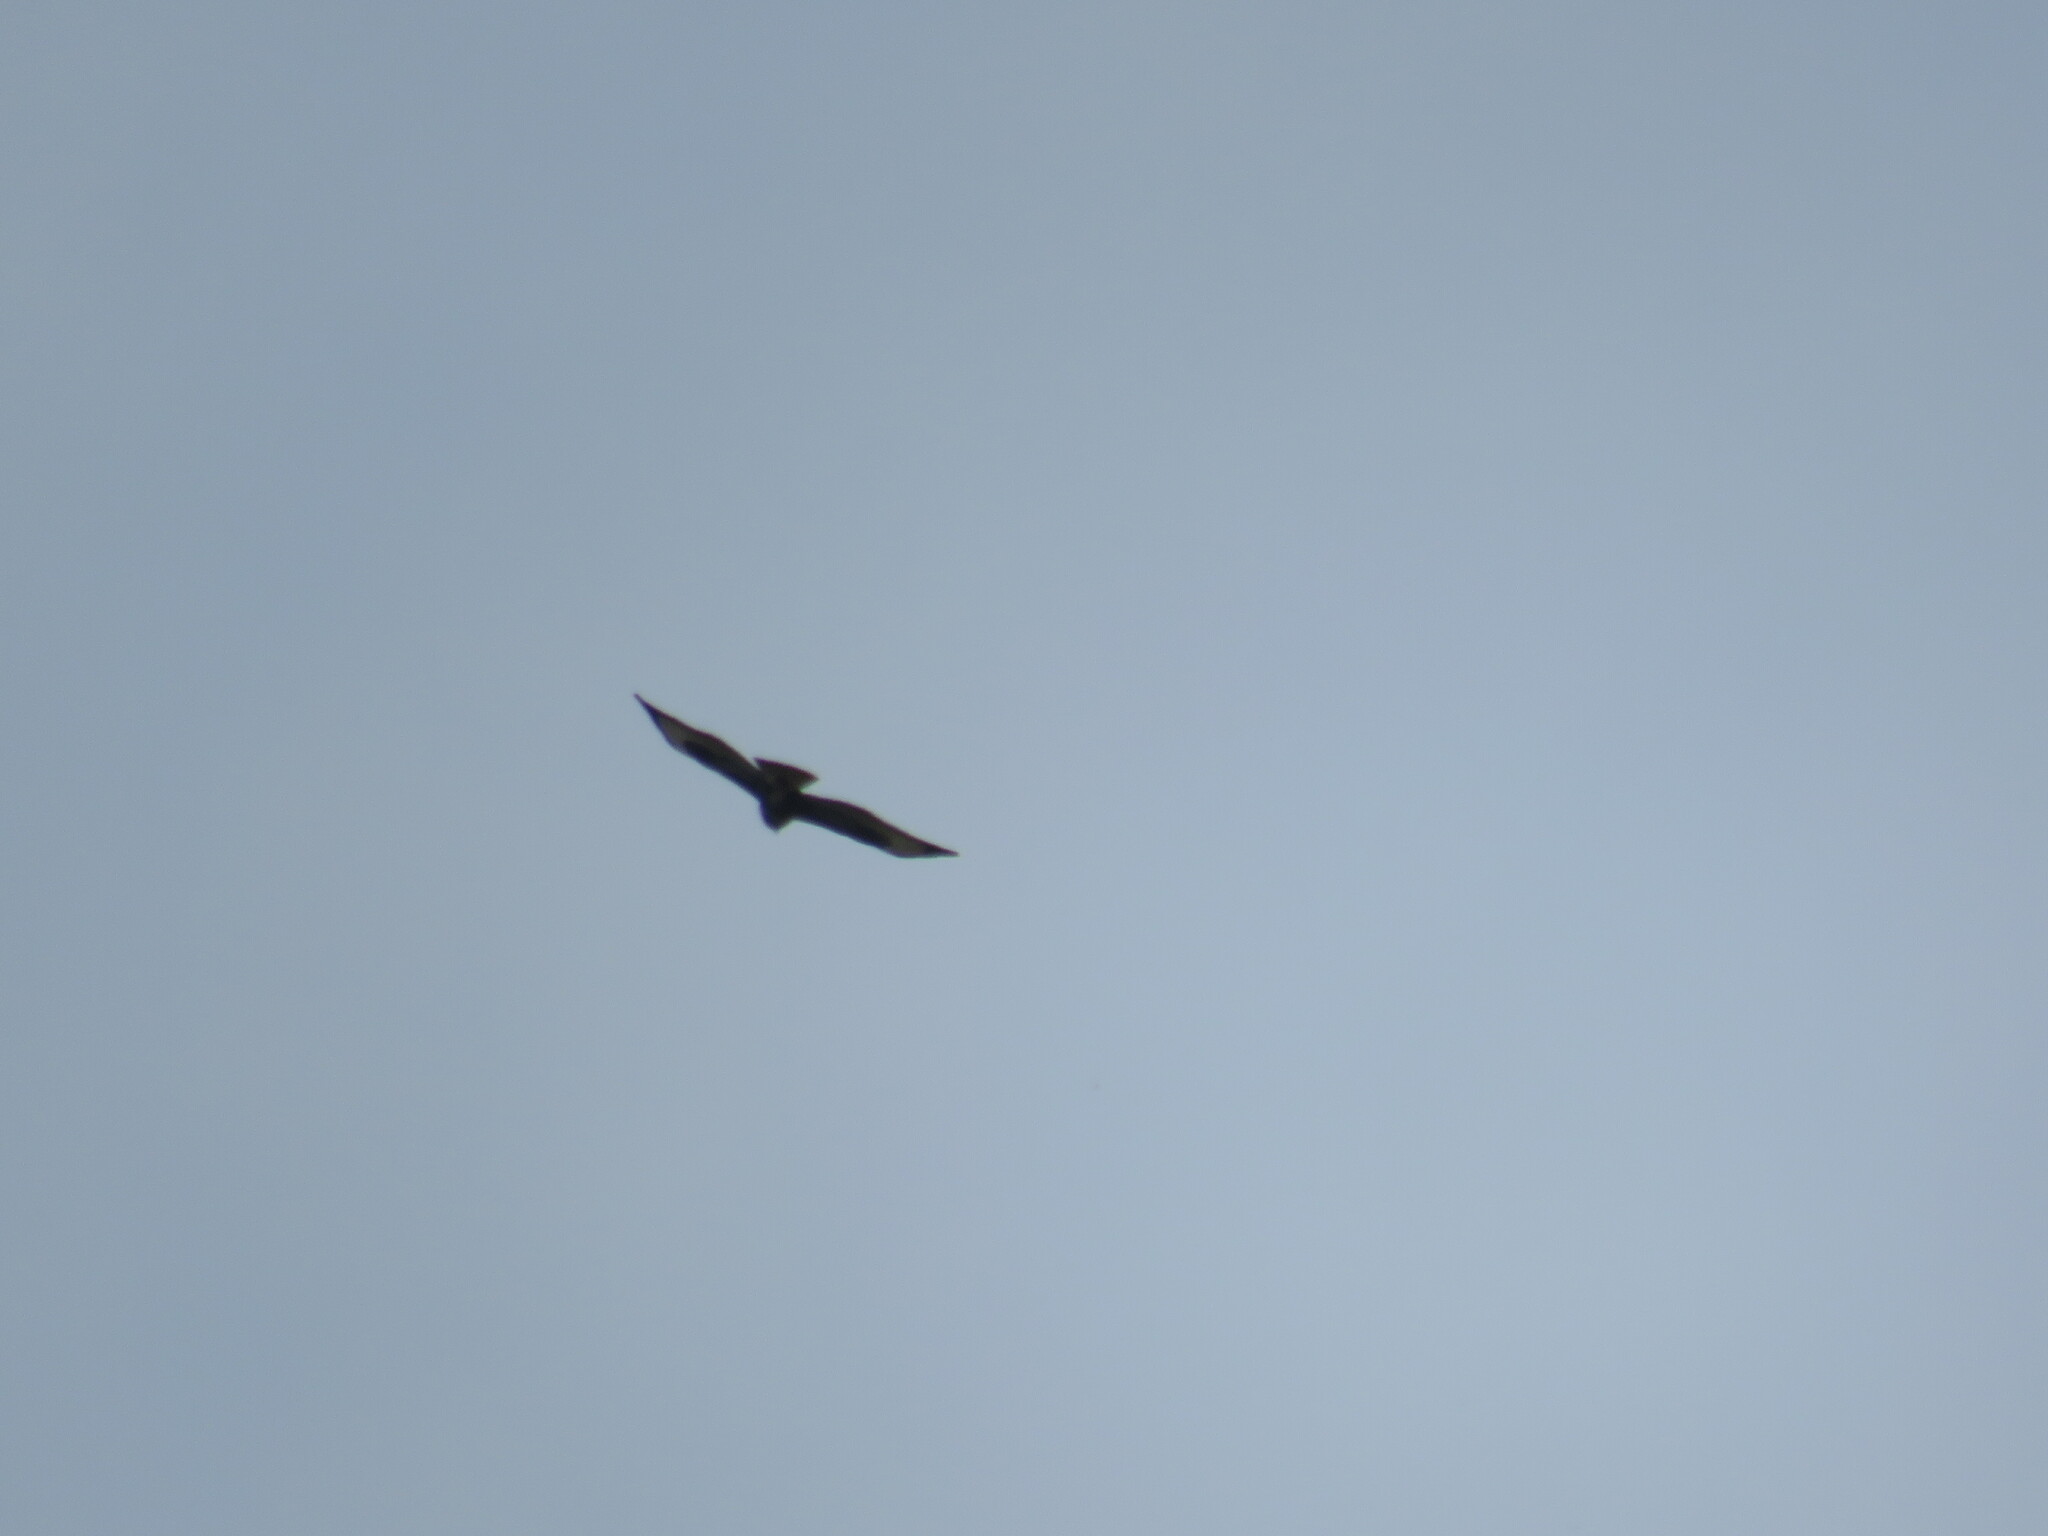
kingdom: Animalia
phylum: Chordata
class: Aves
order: Accipitriformes
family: Accipitridae
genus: Buteo
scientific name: Buteo buteo
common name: Common buzzard
